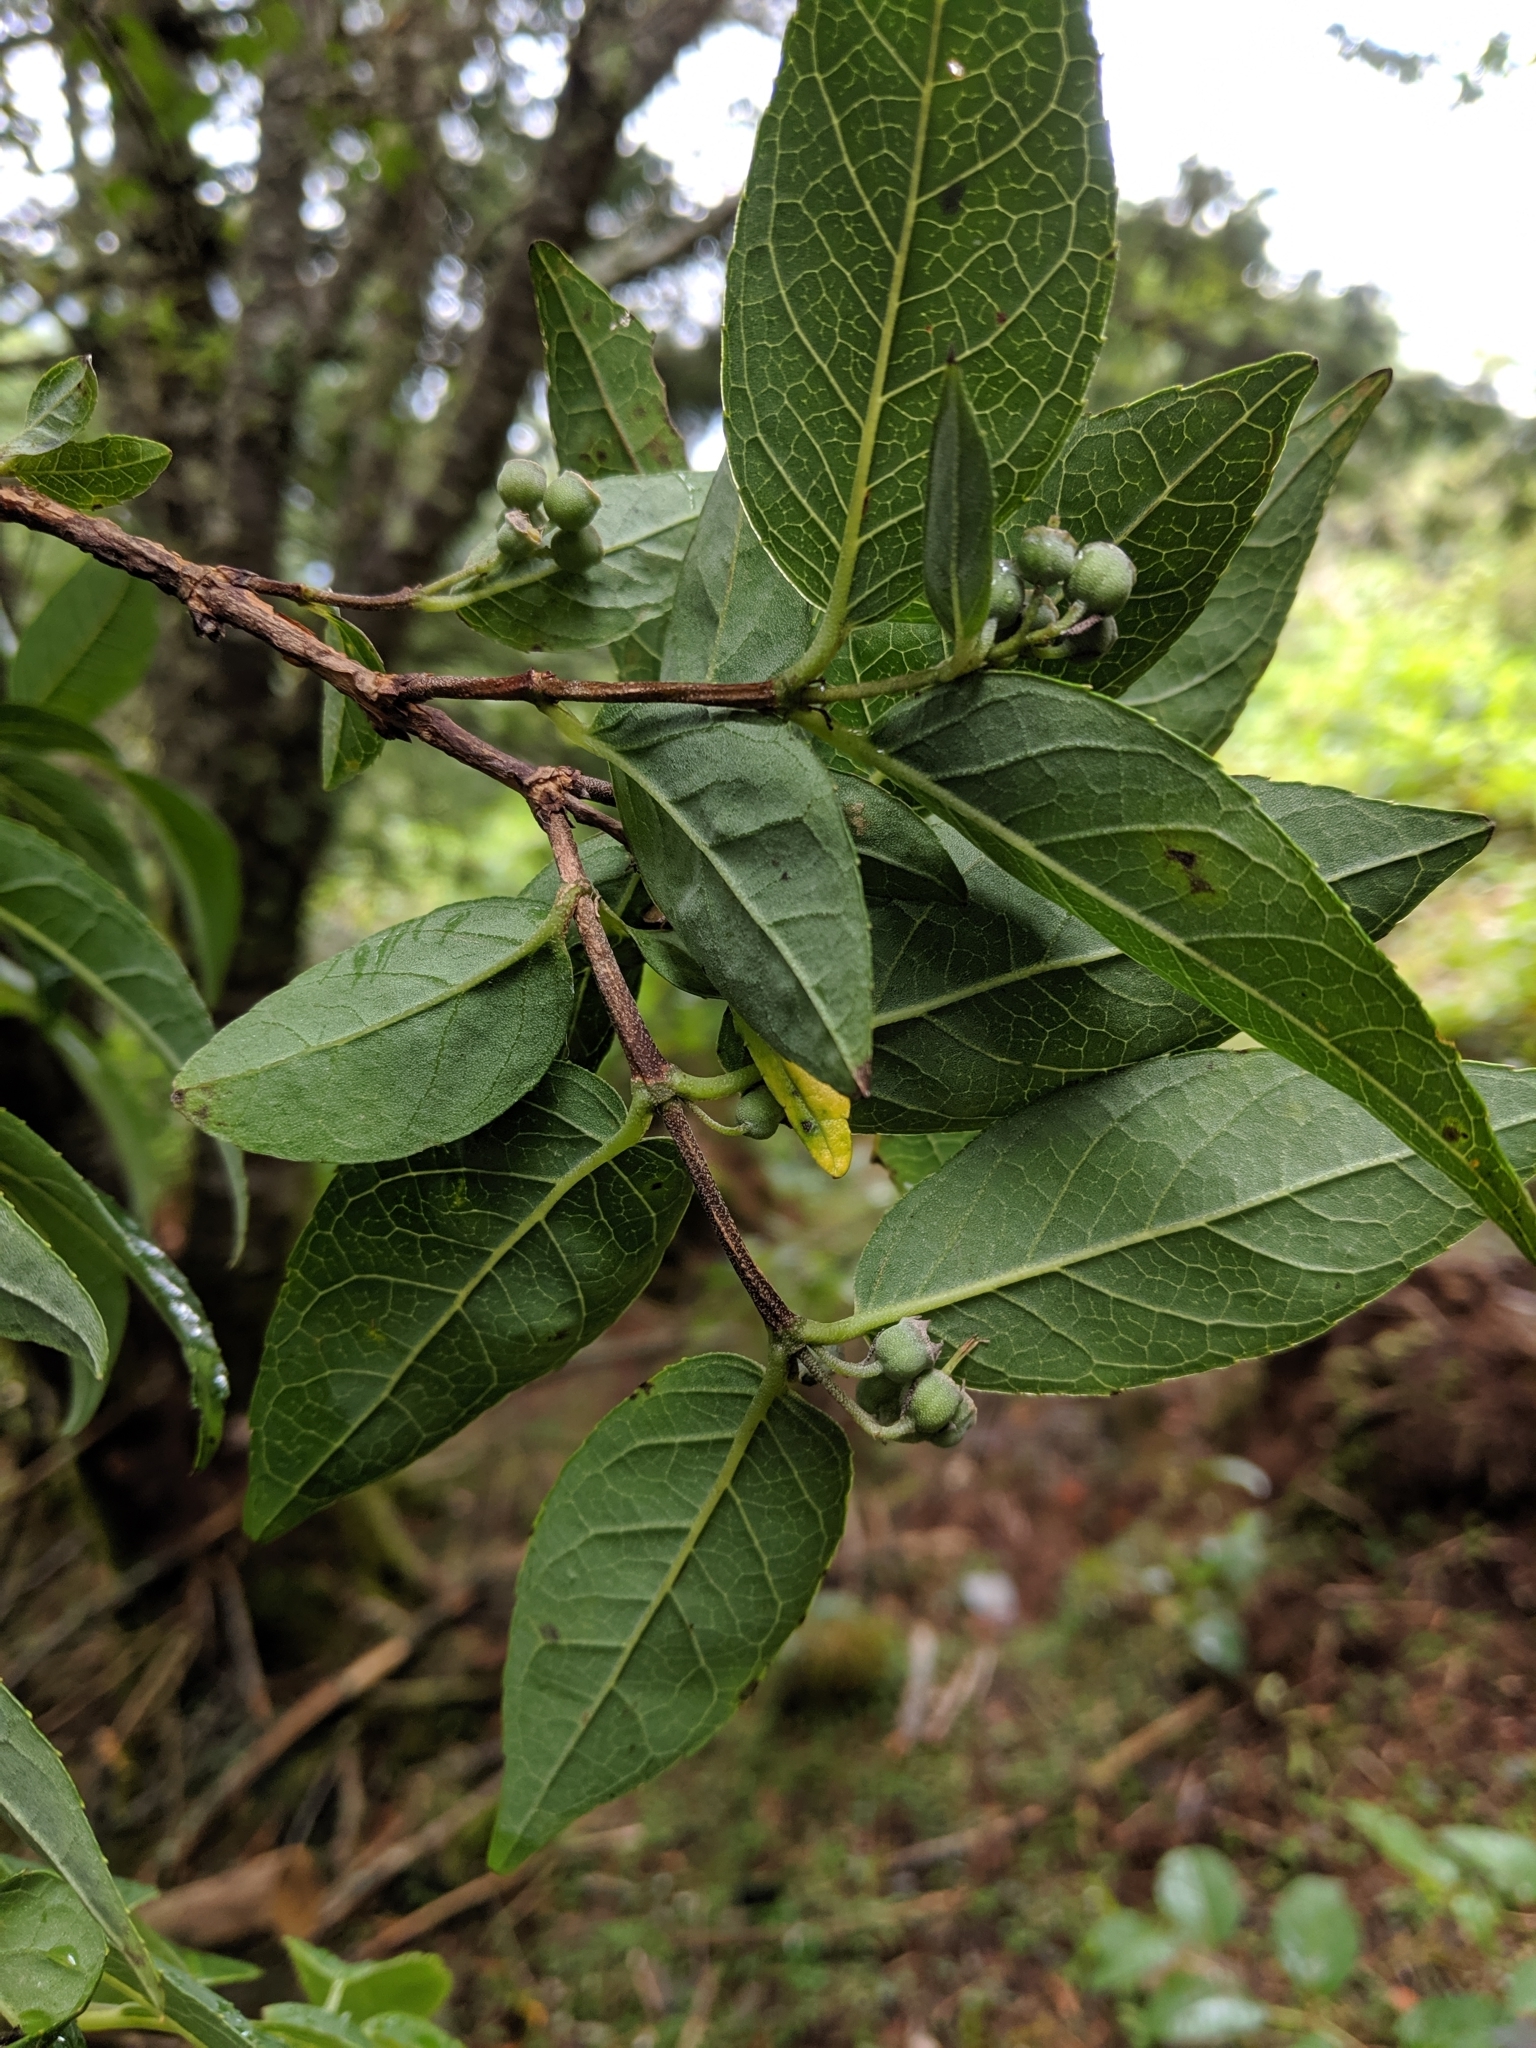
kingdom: Plantae
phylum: Tracheophyta
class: Magnoliopsida
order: Cornales
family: Hydrangeaceae
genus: Deutzia
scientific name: Deutzia pulchra
